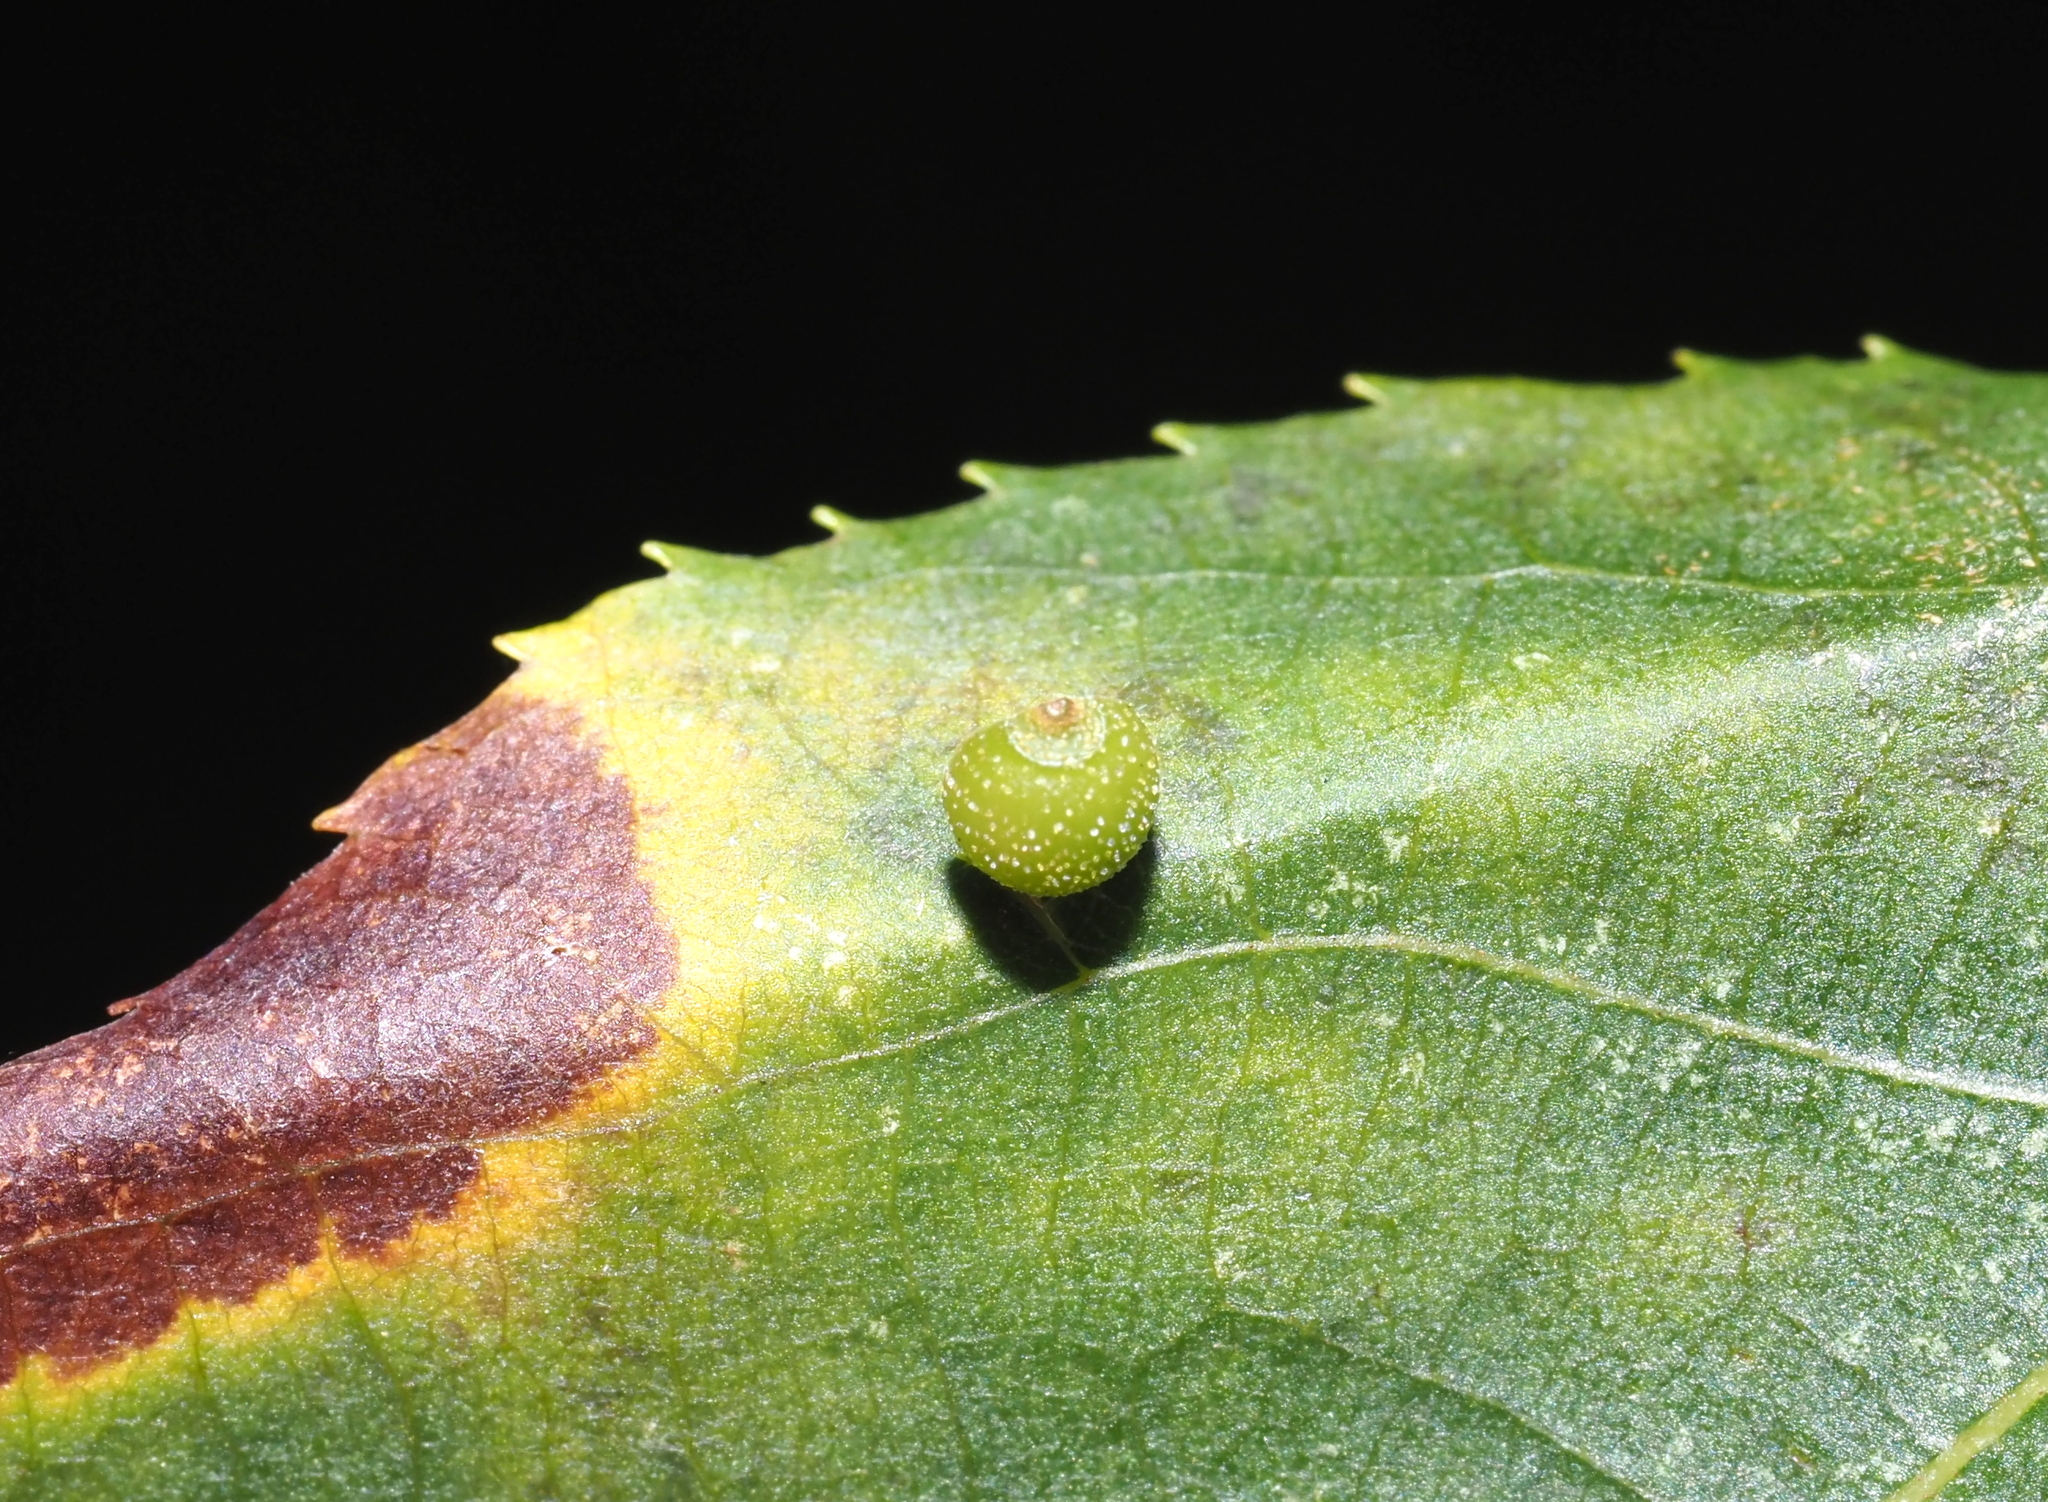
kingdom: Animalia
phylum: Arthropoda
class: Insecta
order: Diptera
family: Cecidomyiidae
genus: Caryomyia
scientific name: Caryomyia viscidolium
